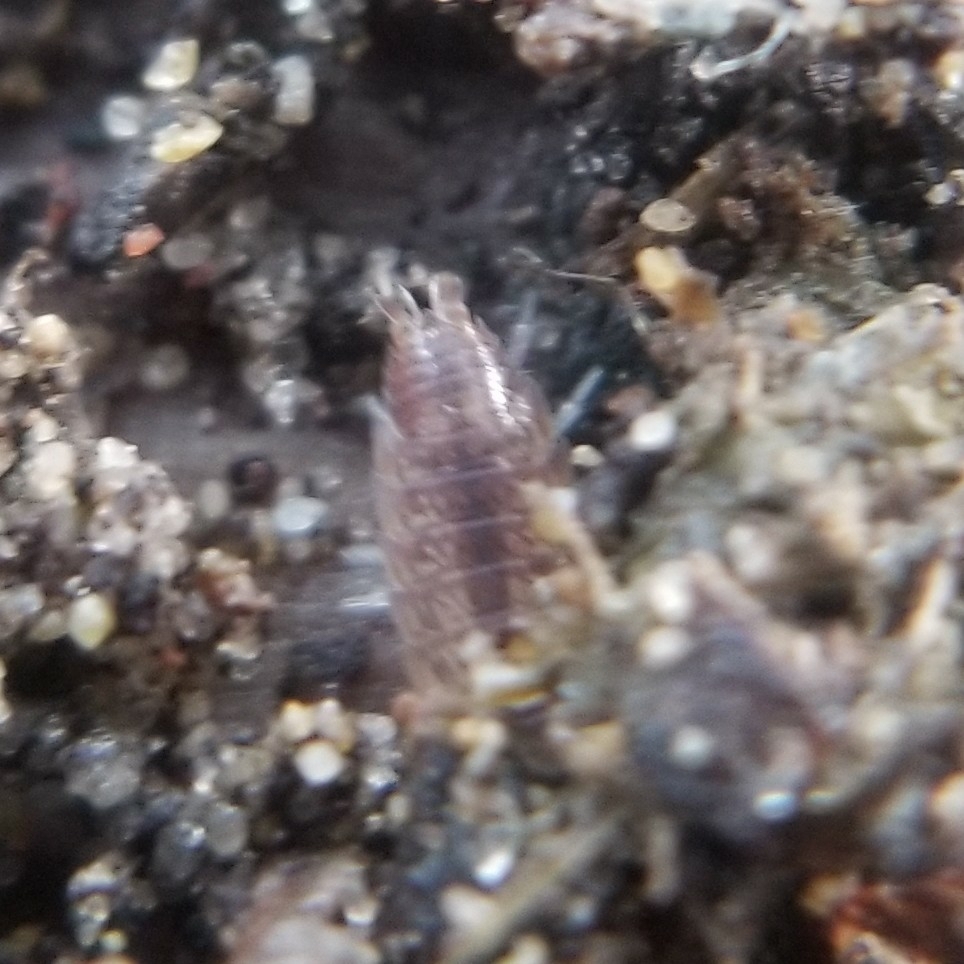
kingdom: Animalia
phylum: Arthropoda
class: Malacostraca
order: Isopoda
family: Platyarthridae
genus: Niambia
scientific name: Niambia capensis
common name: Isopod
